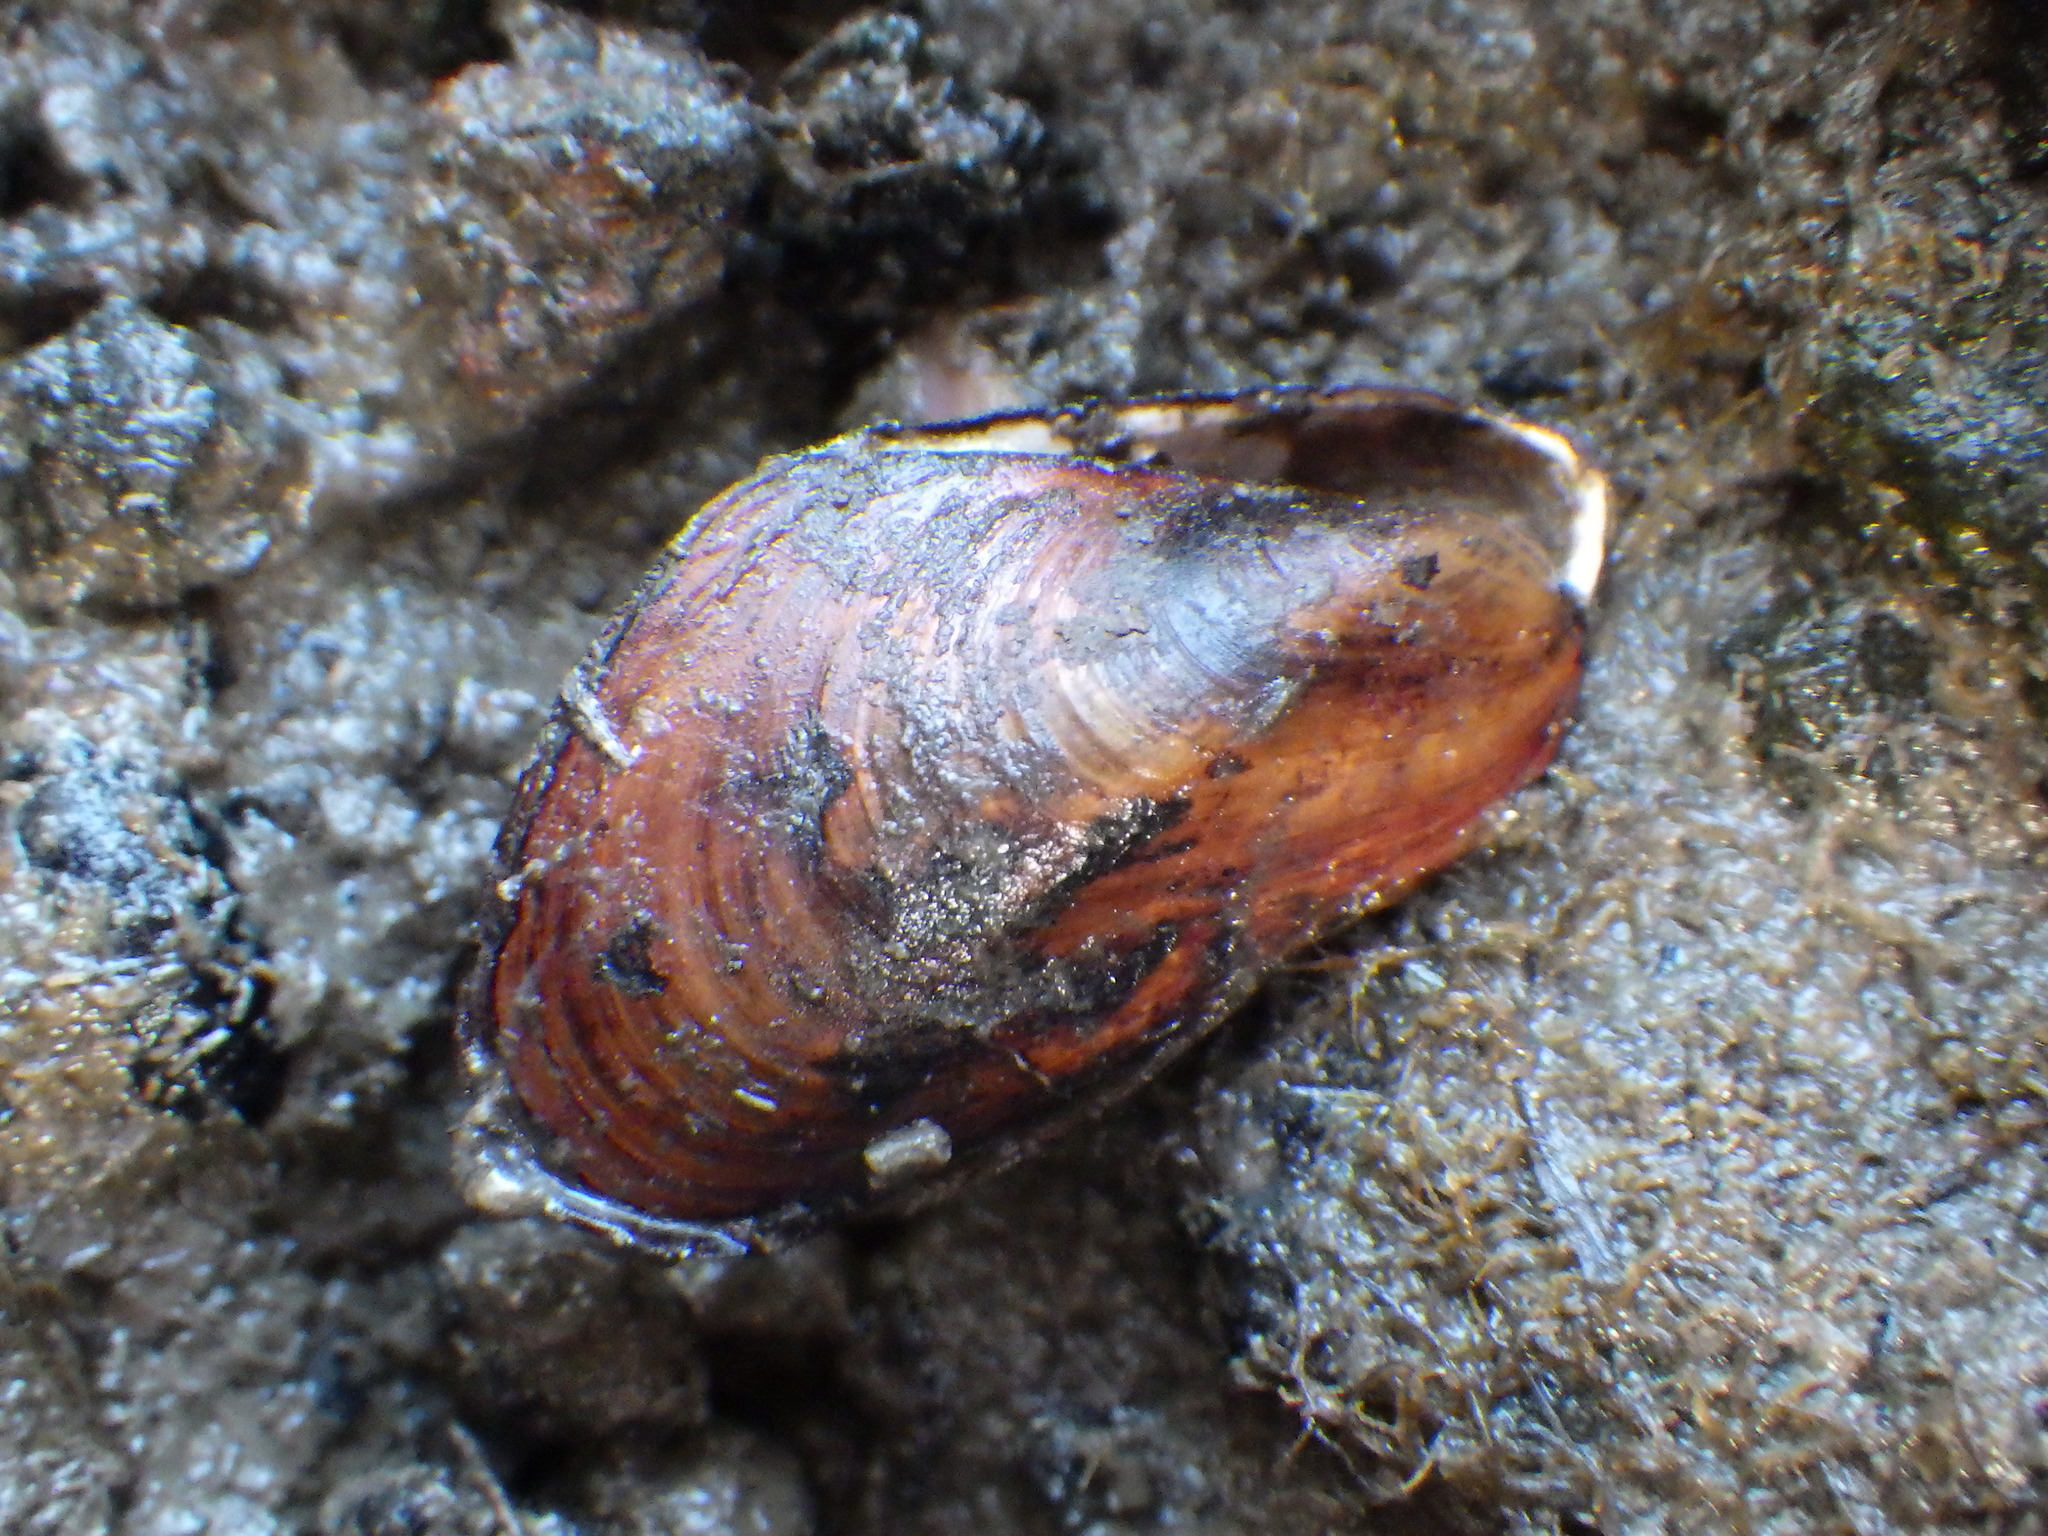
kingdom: Animalia
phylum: Mollusca
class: Bivalvia
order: Mytilida
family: Mytilidae
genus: Xenostrobus
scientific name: Xenostrobus securis
